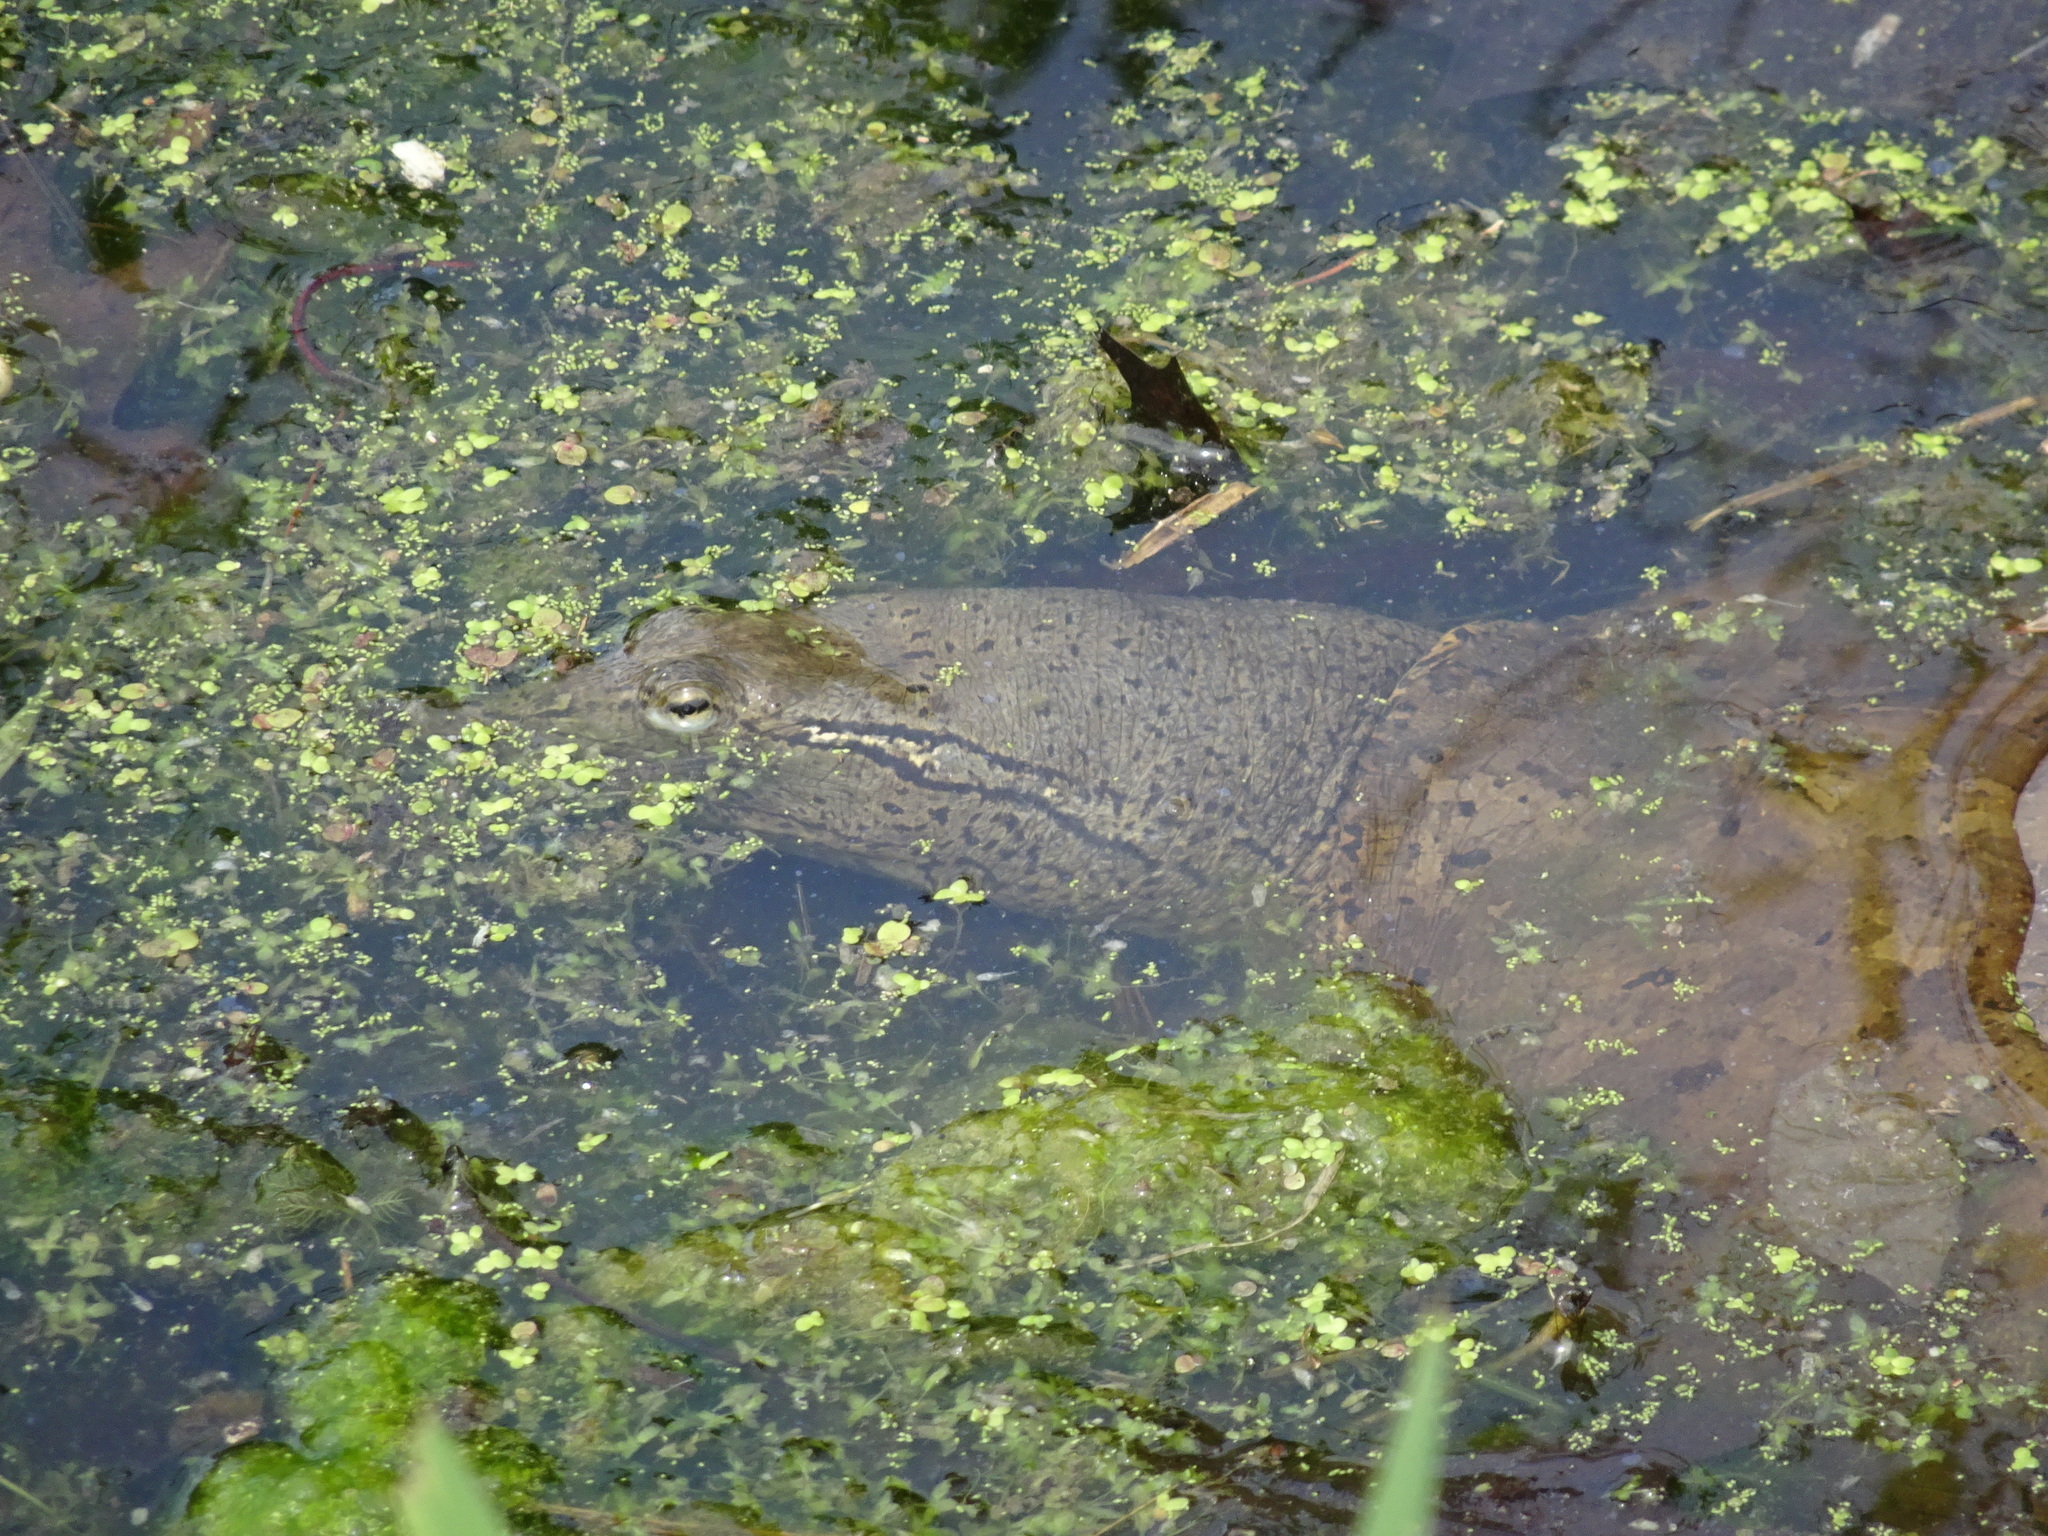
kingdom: Animalia
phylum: Chordata
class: Testudines
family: Trionychidae
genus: Apalone
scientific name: Apalone spinifera
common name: Spiny softshell turtle
